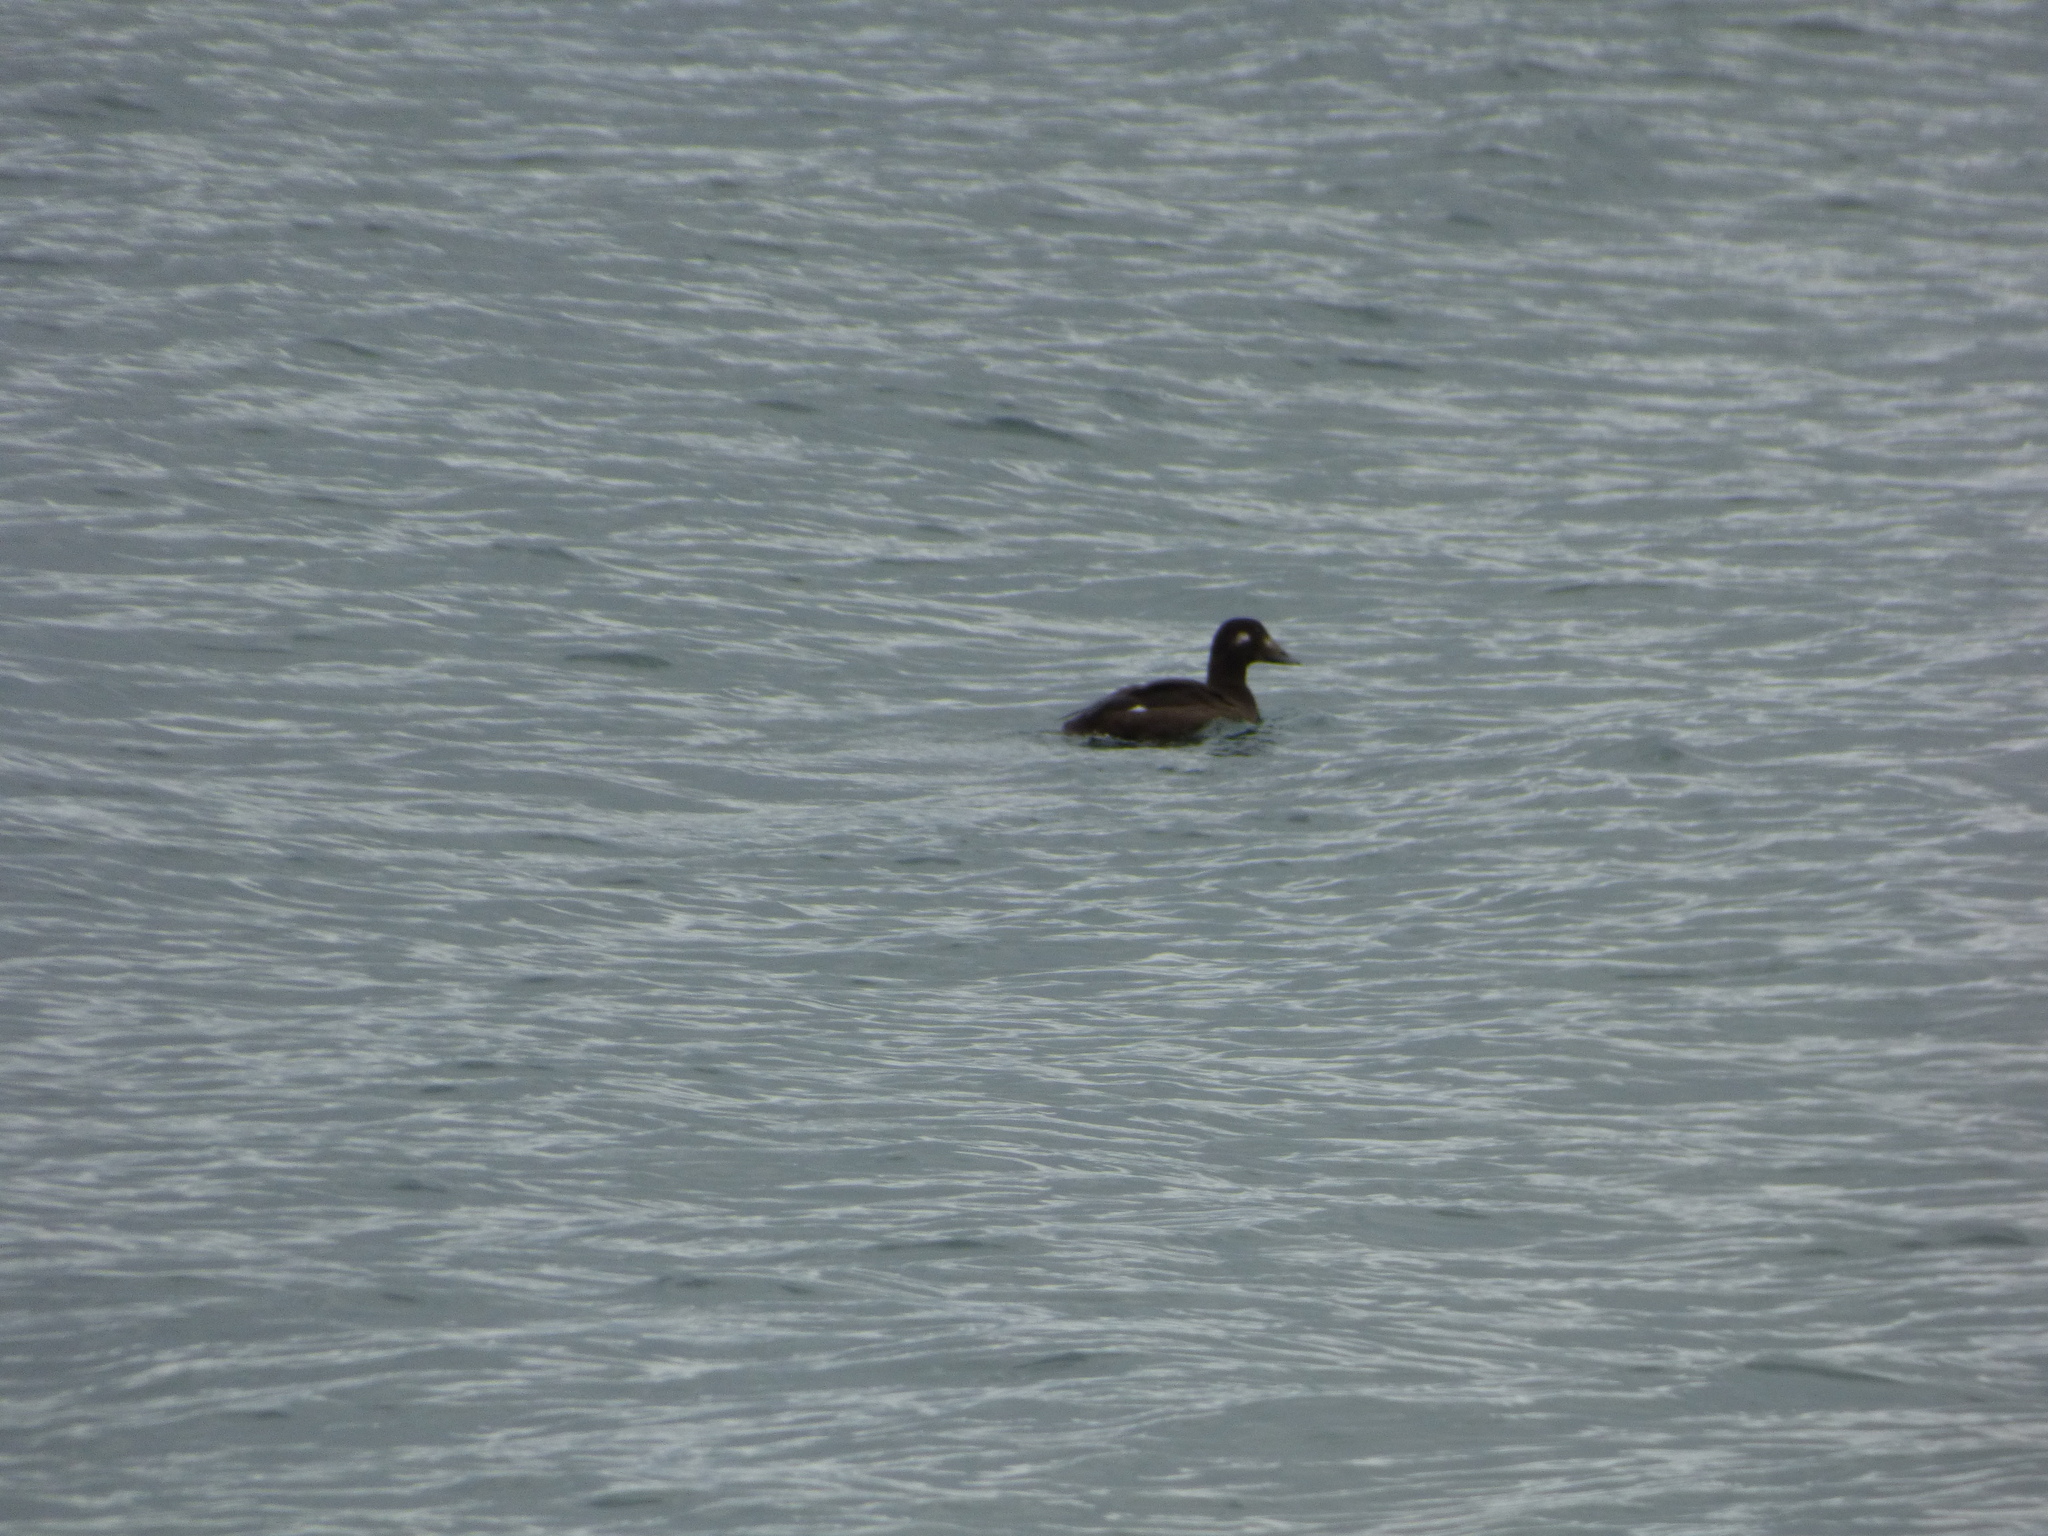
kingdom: Animalia
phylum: Chordata
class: Aves
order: Anseriformes
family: Anatidae
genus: Melanitta
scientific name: Melanitta deglandi
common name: White-winged scoter
